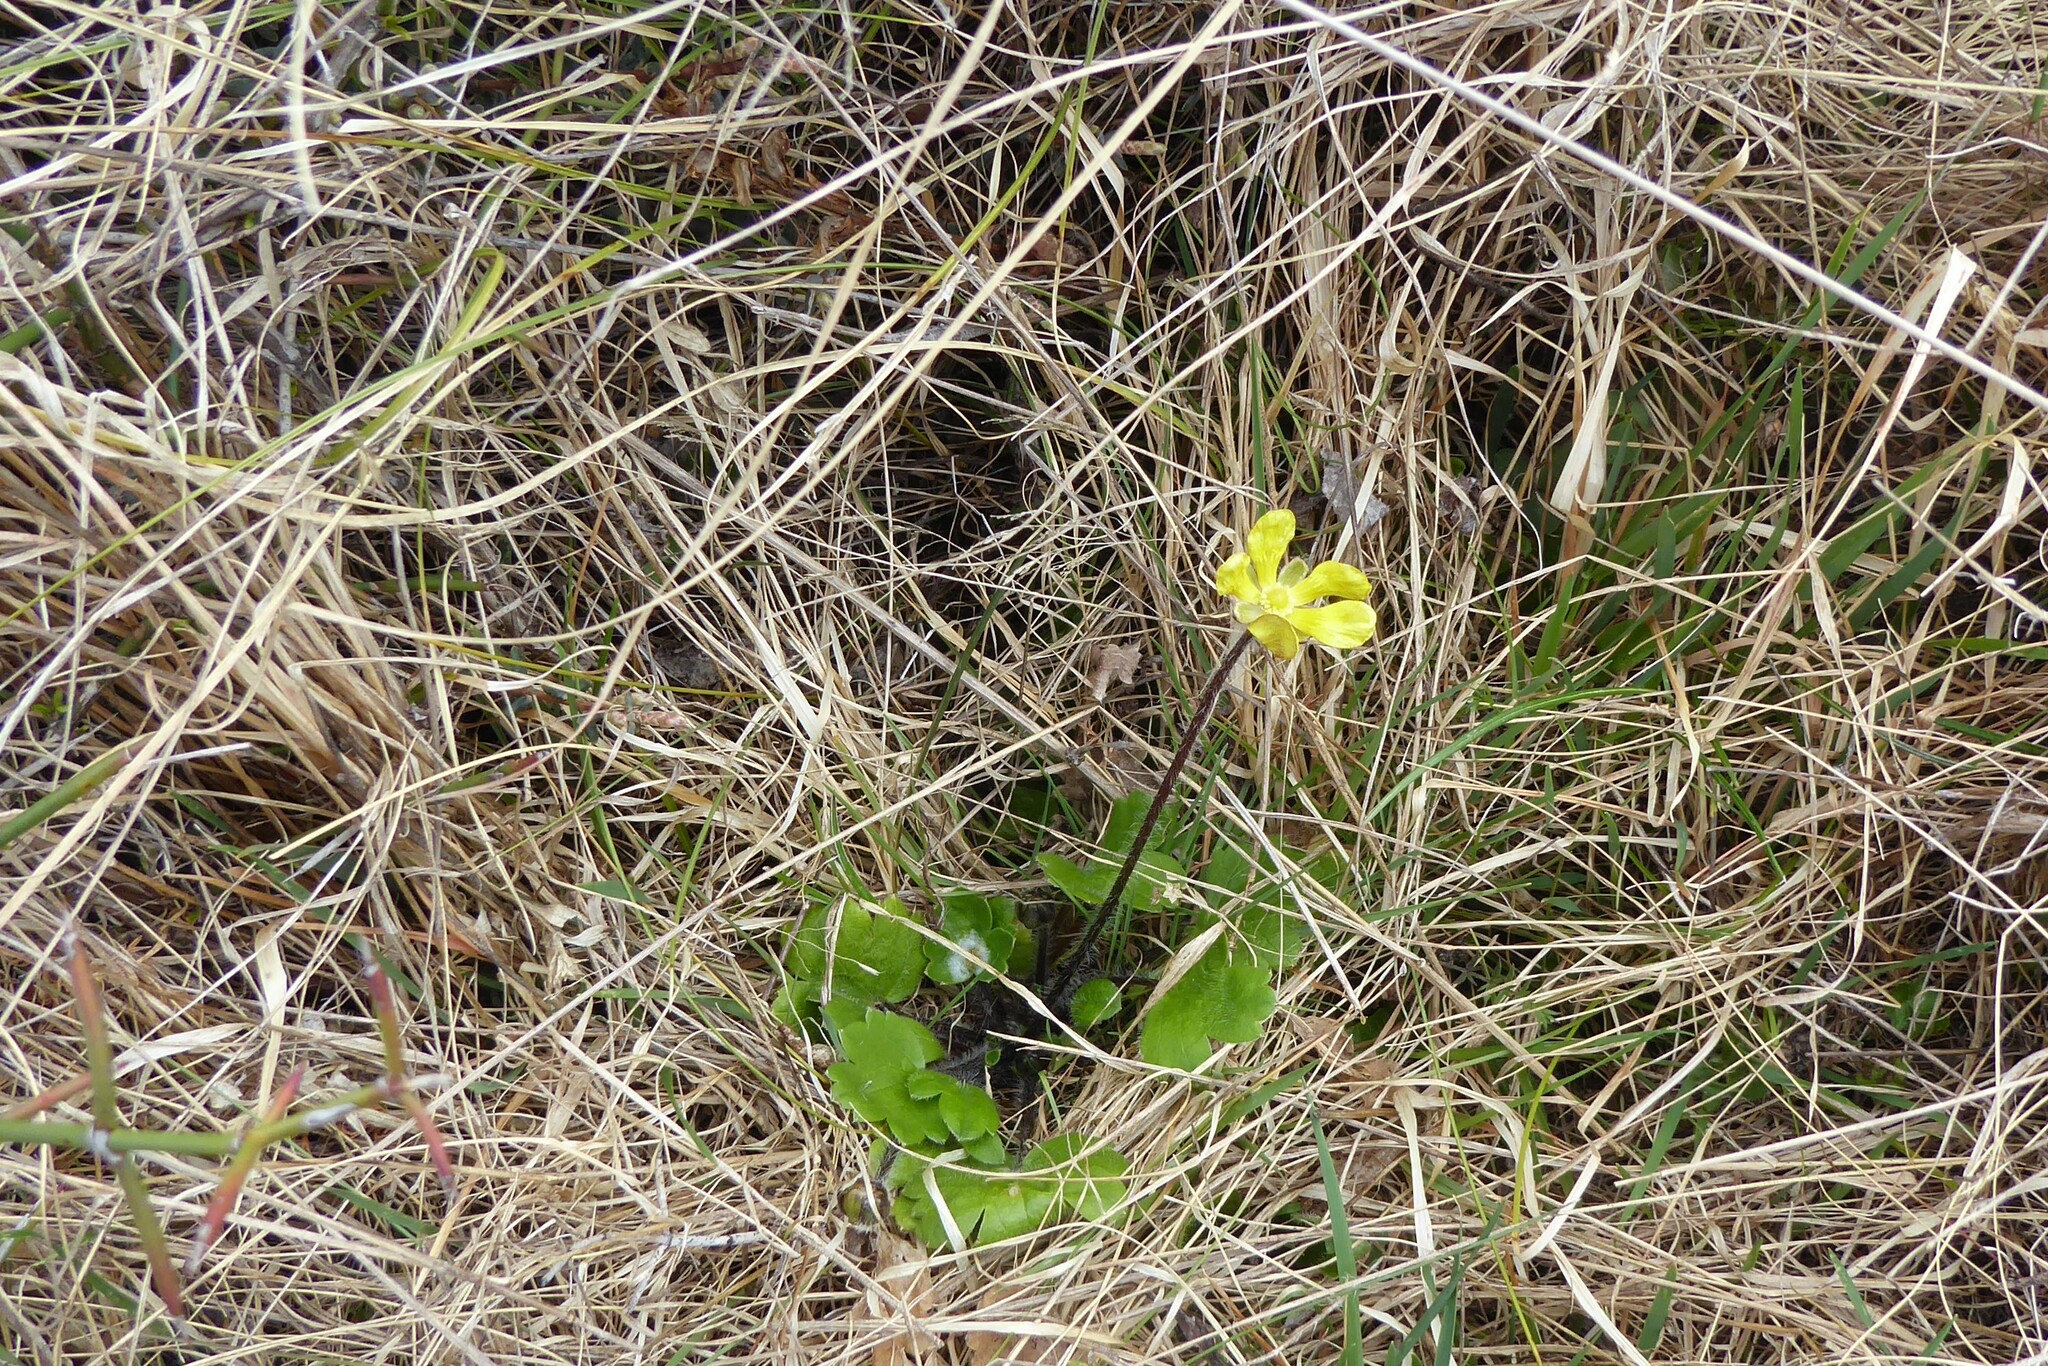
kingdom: Plantae
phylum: Tracheophyta
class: Magnoliopsida
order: Ranunculales
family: Ranunculaceae
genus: Ranunculus
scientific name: Ranunculus multiscapus
